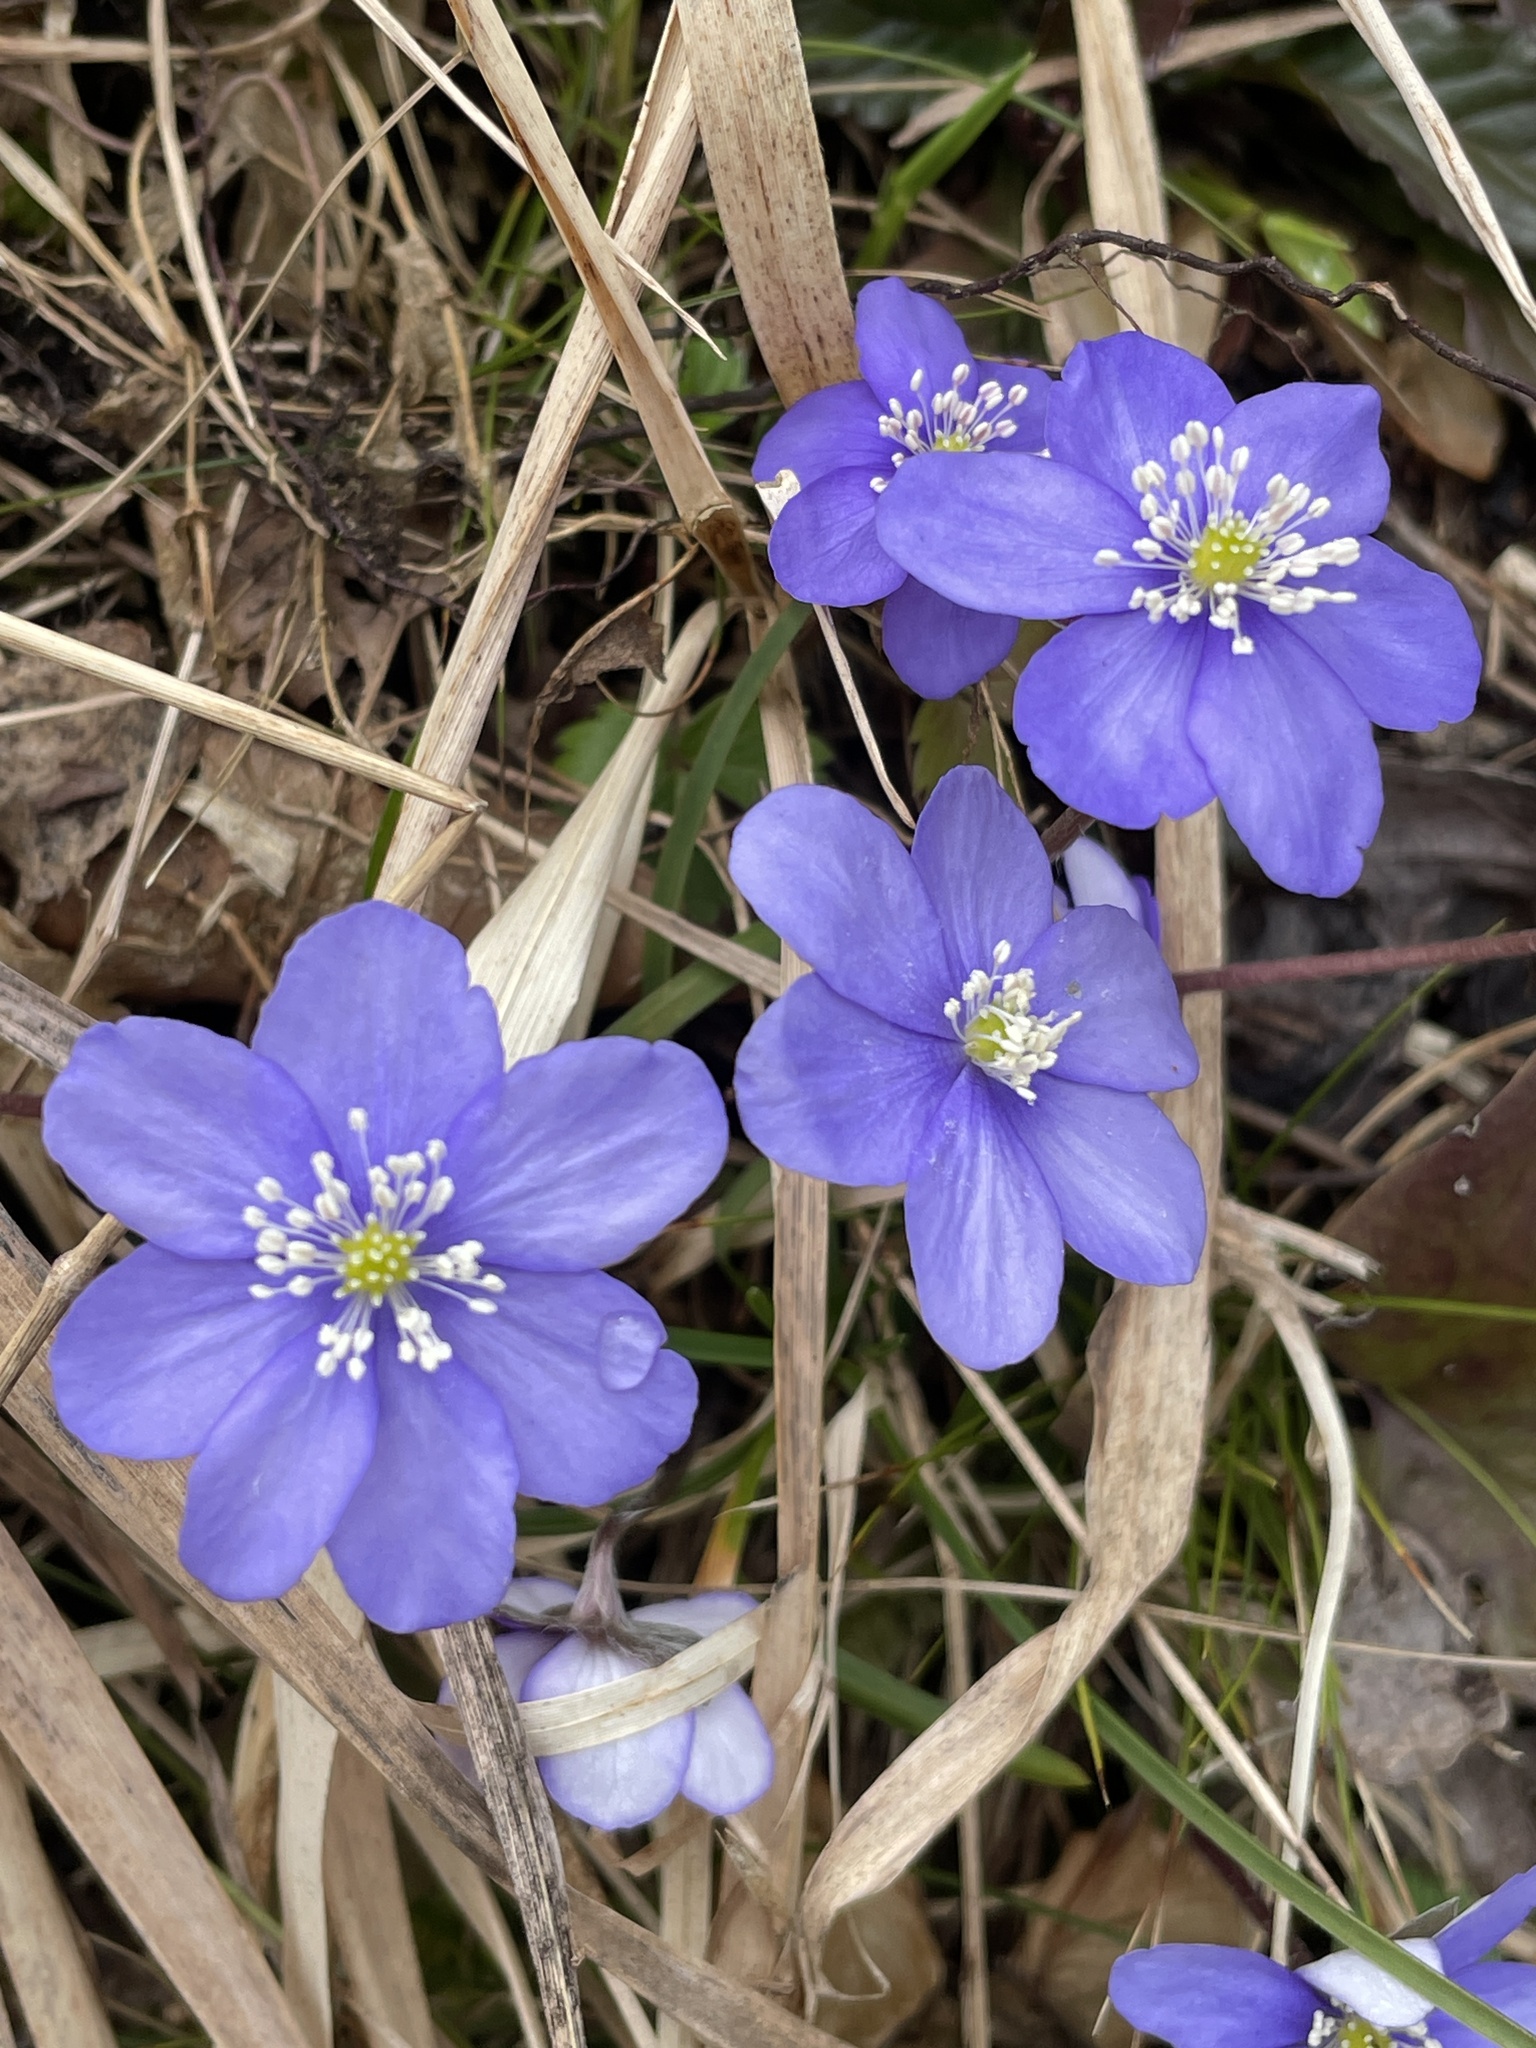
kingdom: Plantae
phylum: Tracheophyta
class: Magnoliopsida
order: Ranunculales
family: Ranunculaceae
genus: Hepatica
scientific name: Hepatica nobilis
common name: Liverleaf
